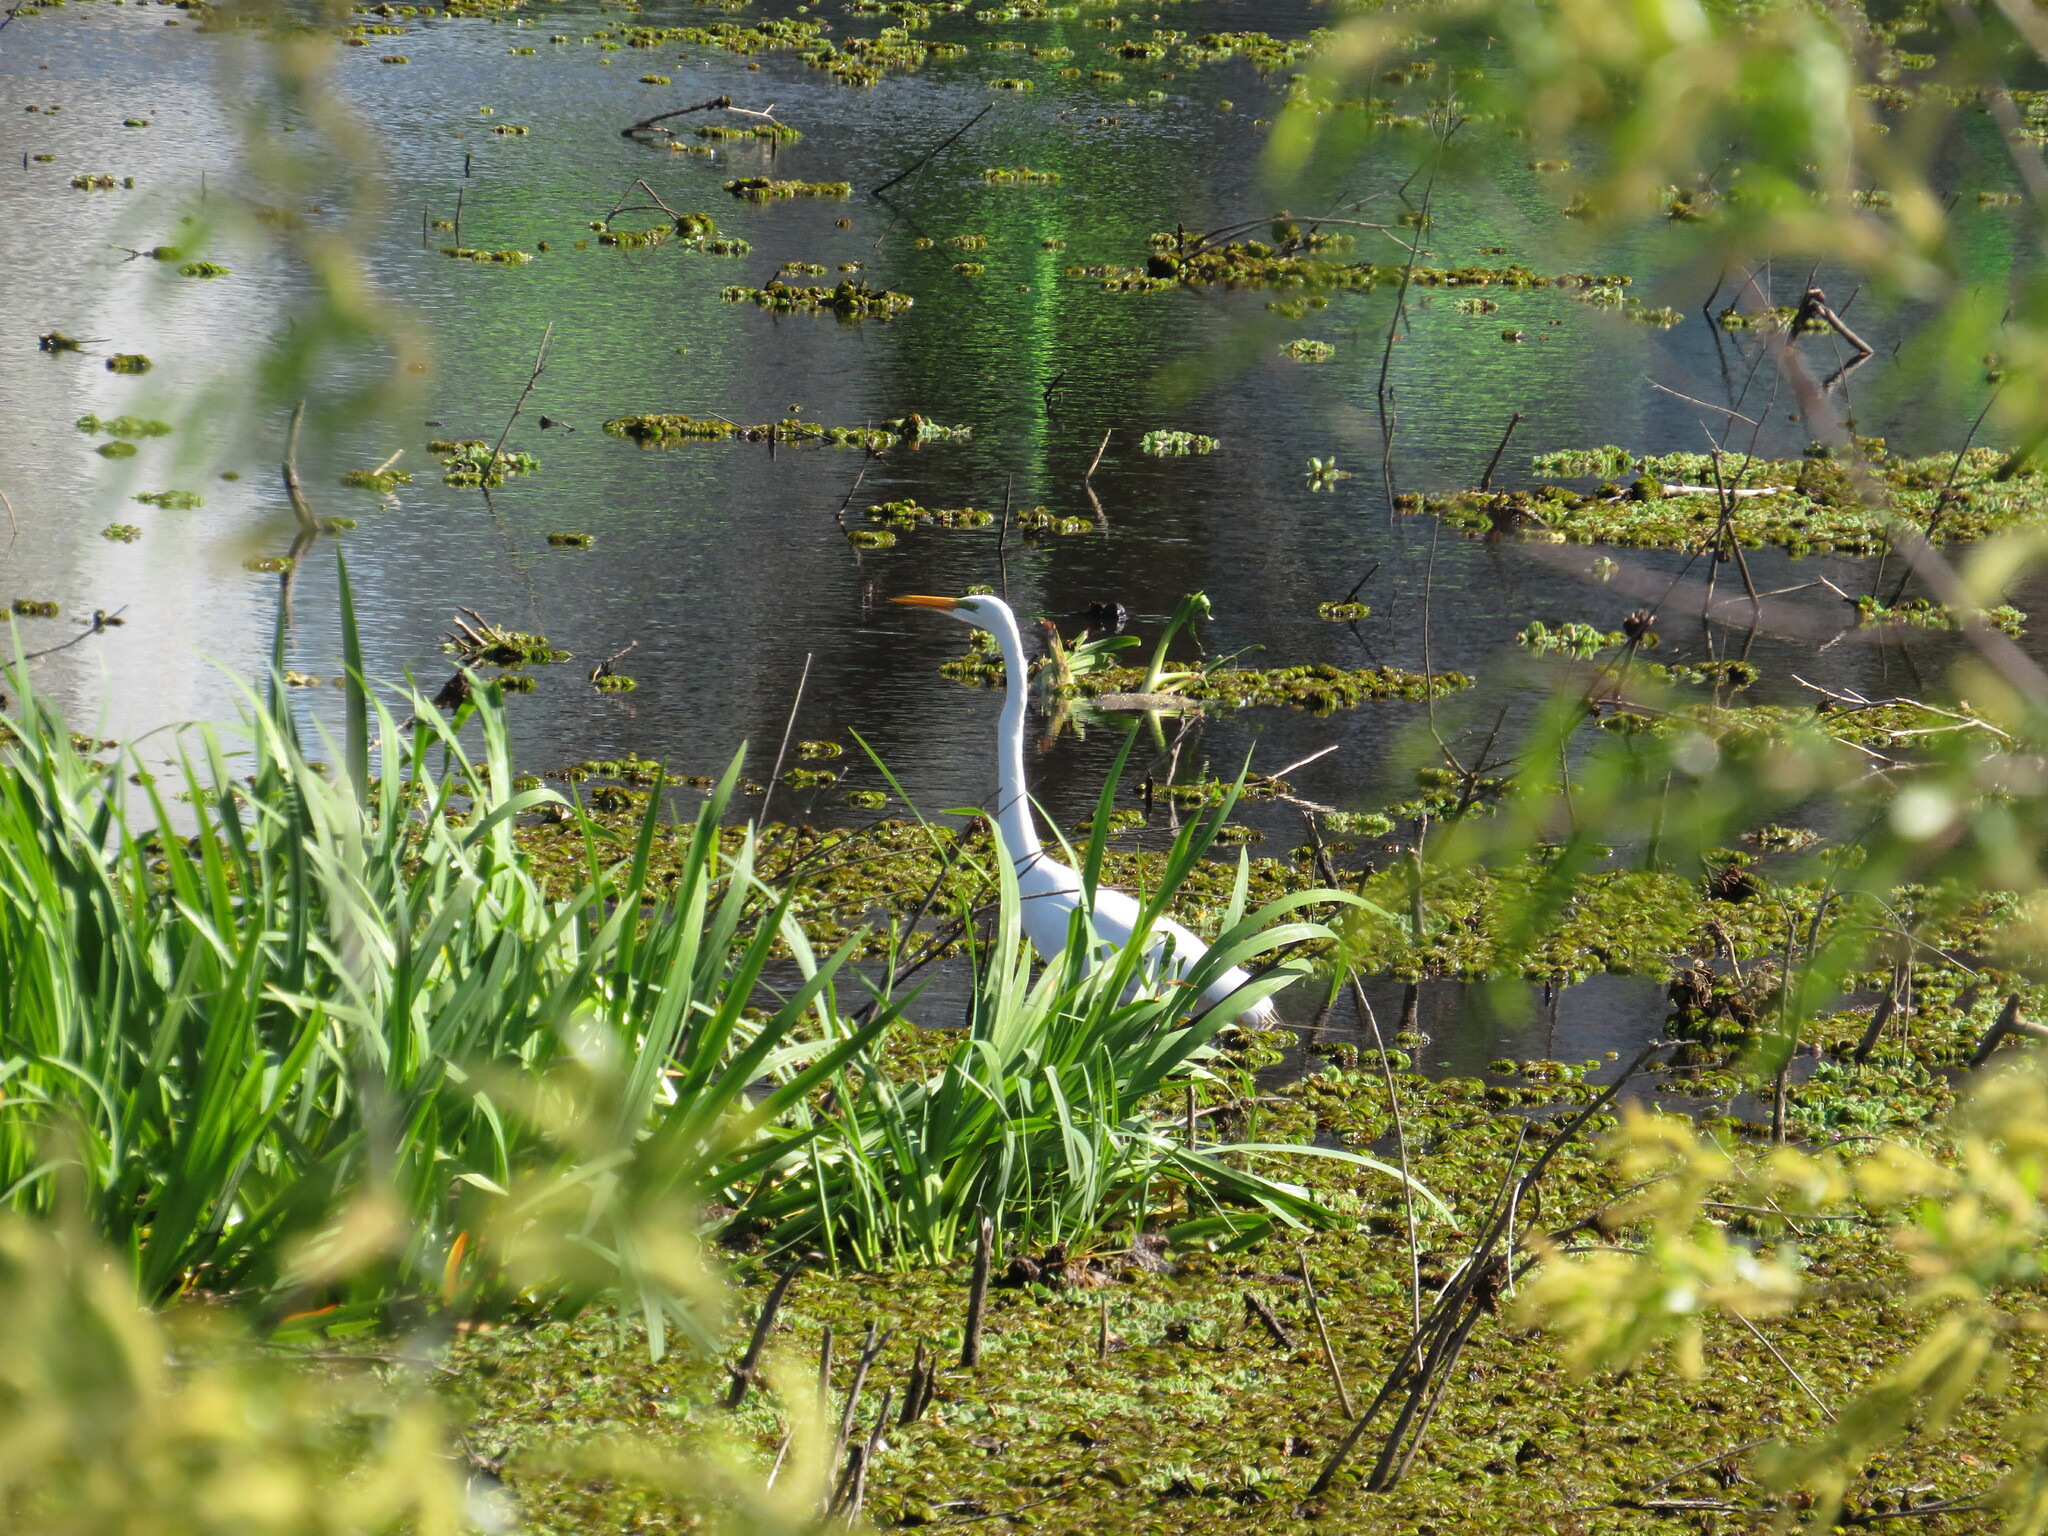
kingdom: Animalia
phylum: Chordata
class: Aves
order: Pelecaniformes
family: Ardeidae
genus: Ardea
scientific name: Ardea alba
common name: Great egret
